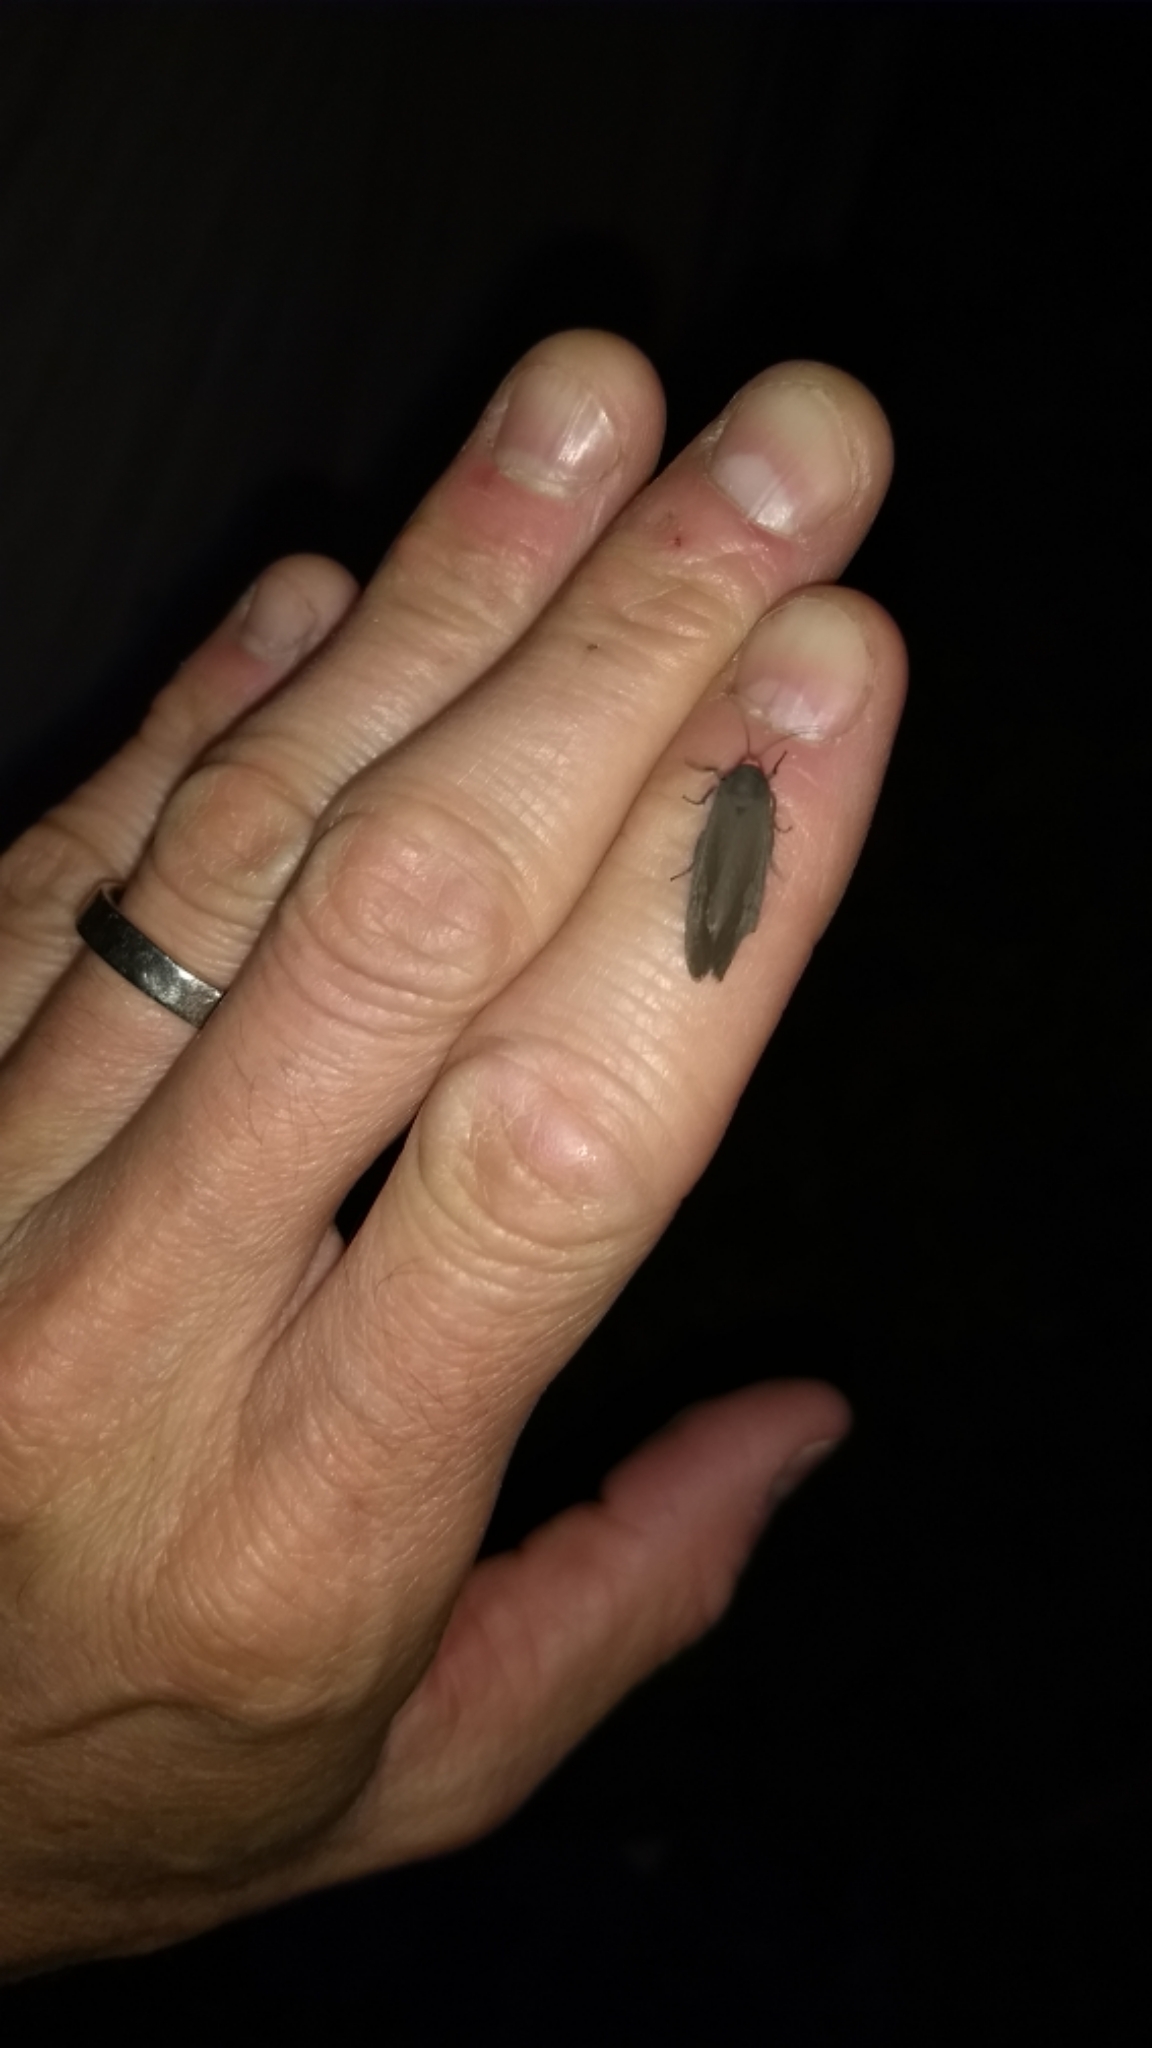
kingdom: Animalia
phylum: Arthropoda
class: Insecta
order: Lepidoptera
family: Erebidae
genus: Virbia
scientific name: Virbia laeta
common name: Joyful holomelina moth
